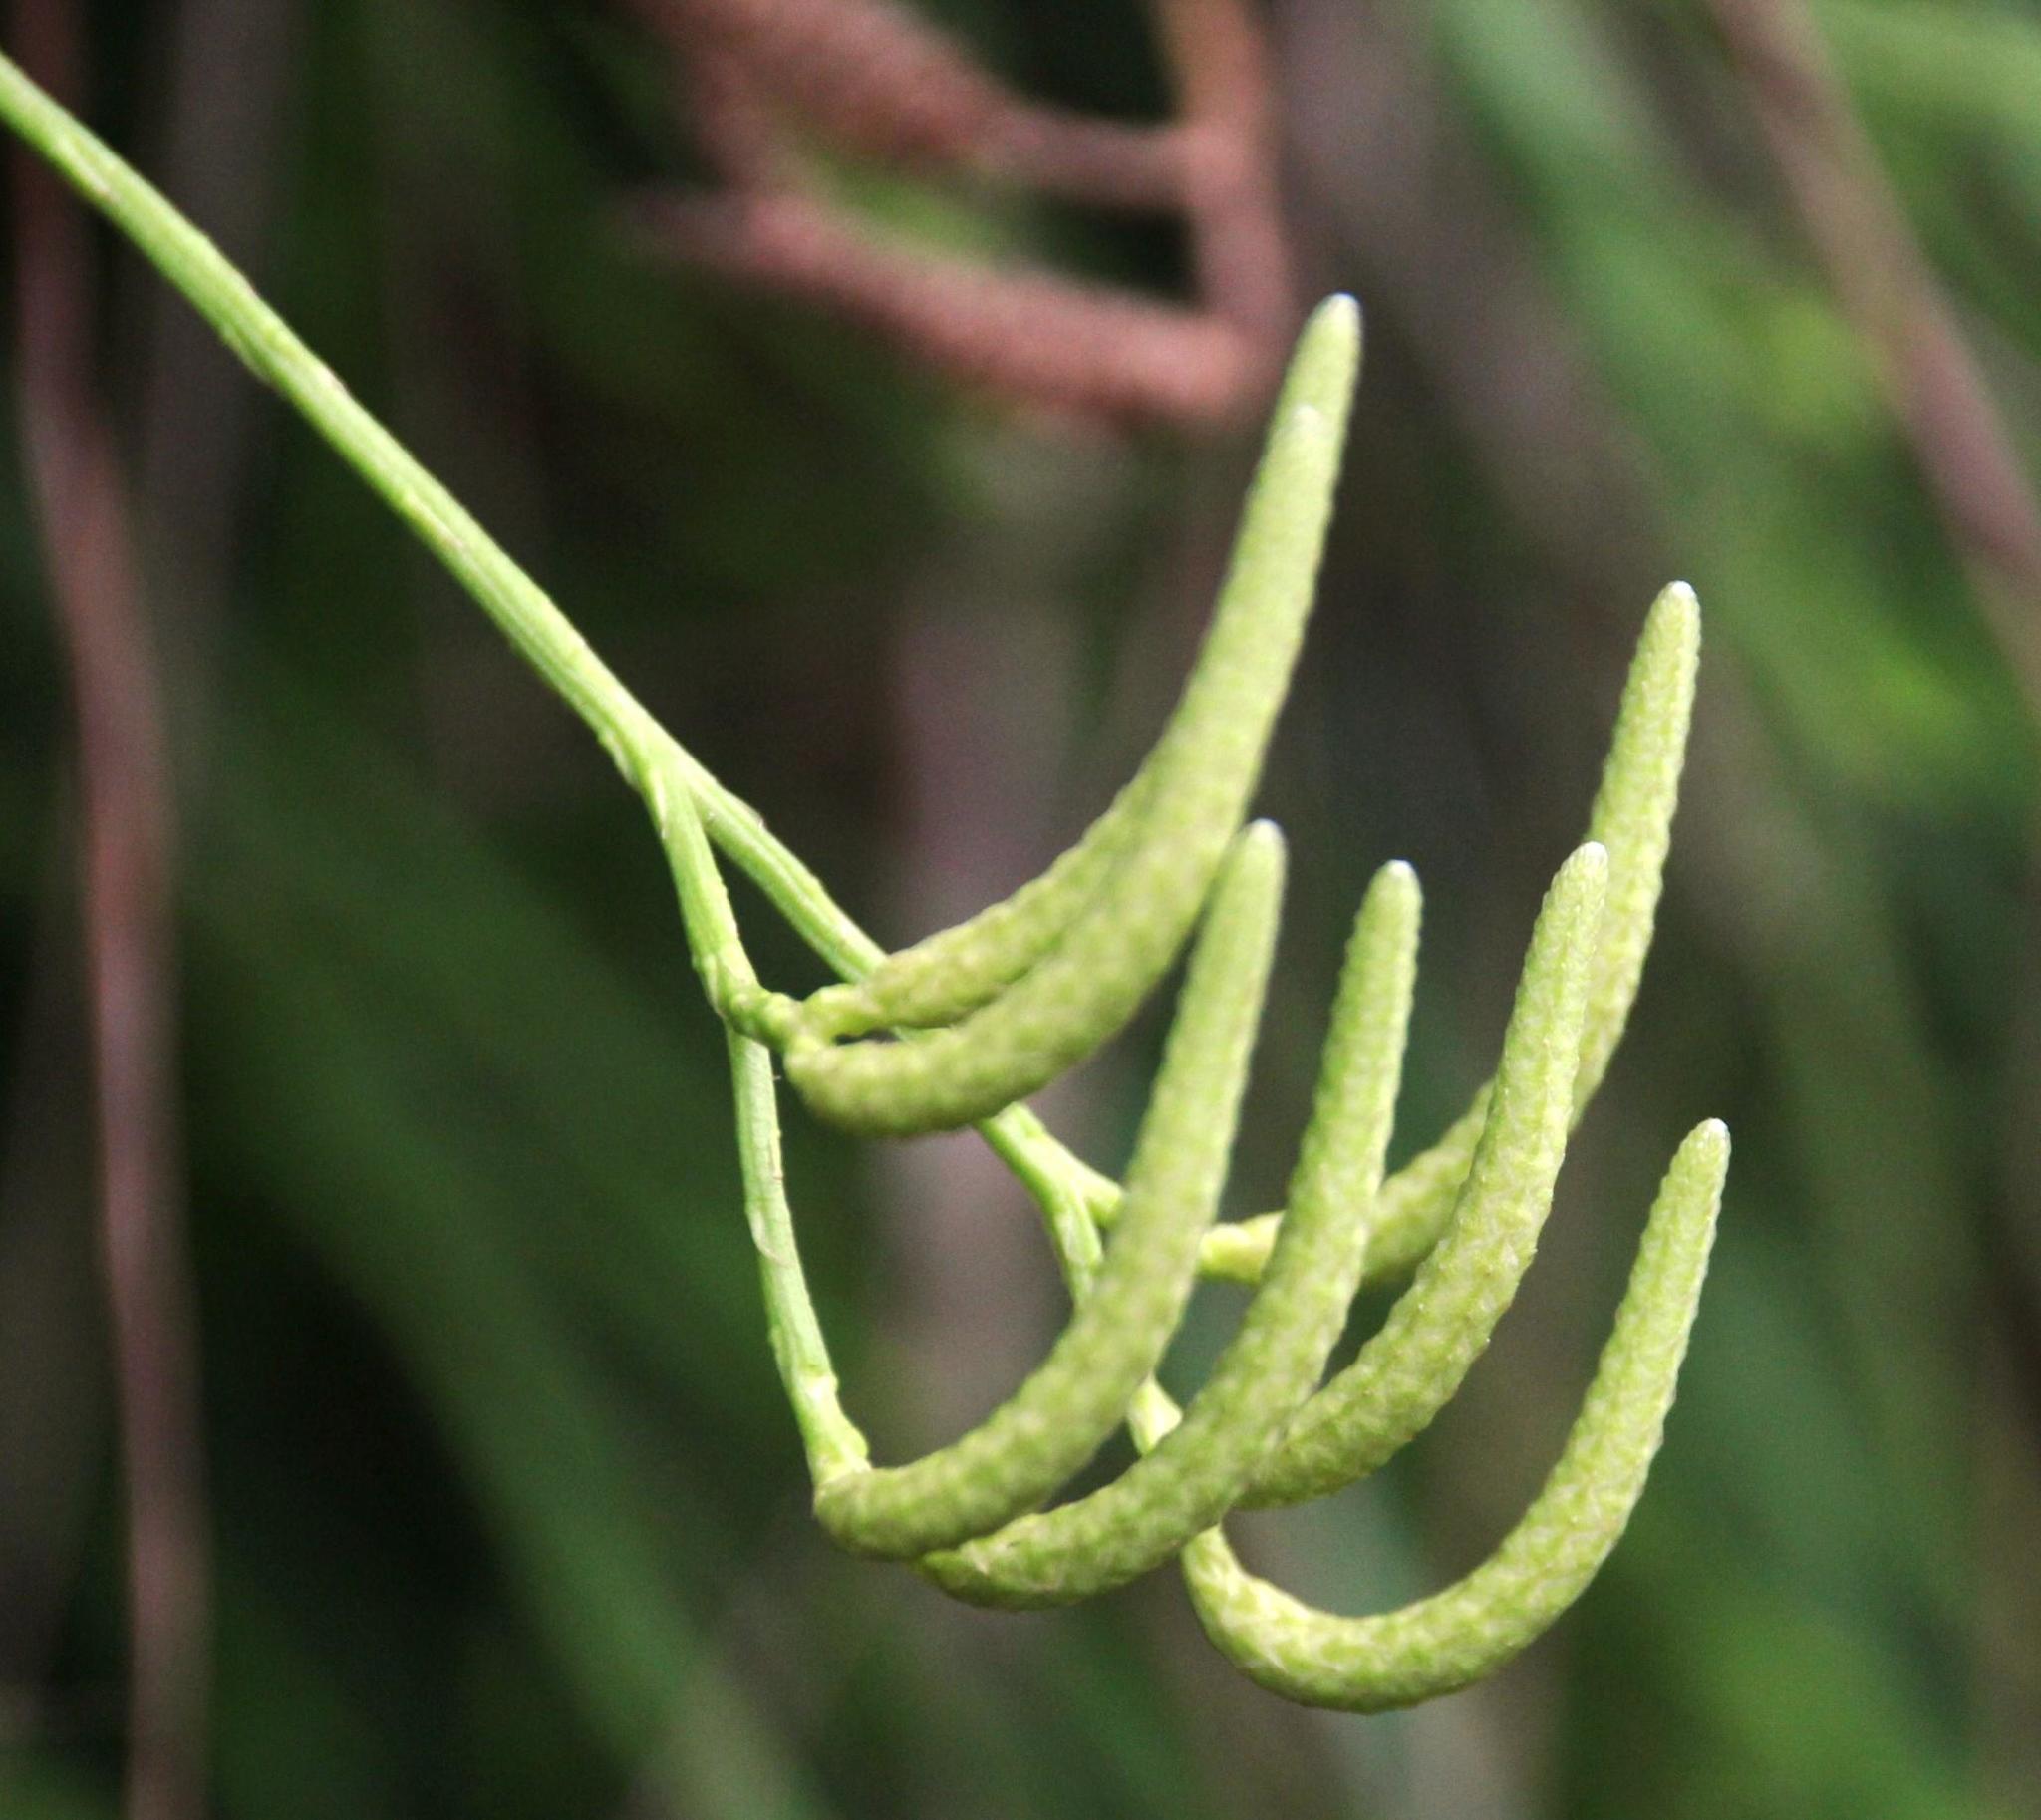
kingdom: Plantae
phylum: Tracheophyta
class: Lycopodiopsida
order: Lycopodiales
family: Lycopodiaceae
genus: Diphasiastrum
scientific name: Diphasiastrum thyoides
